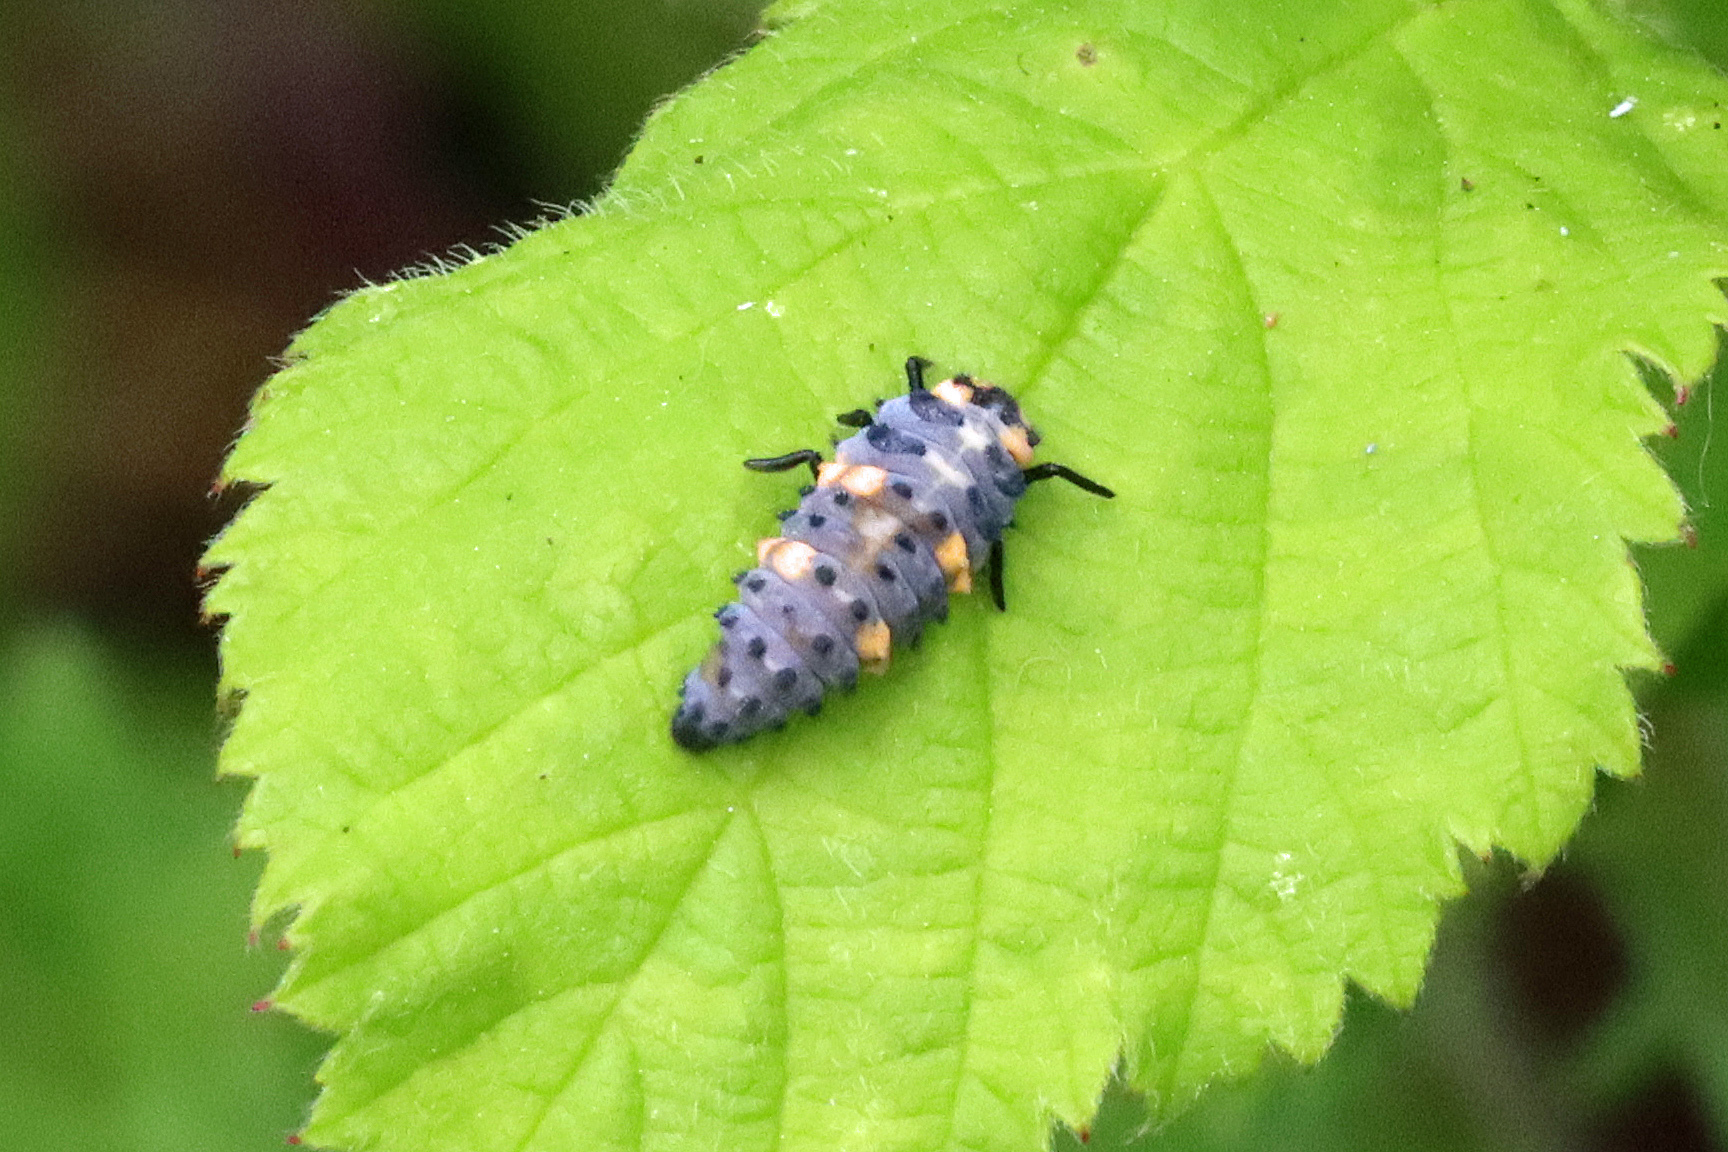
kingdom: Animalia
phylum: Arthropoda
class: Insecta
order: Coleoptera
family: Coccinellidae
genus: Coccinella
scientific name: Coccinella septempunctata
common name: Sevenspotted lady beetle
